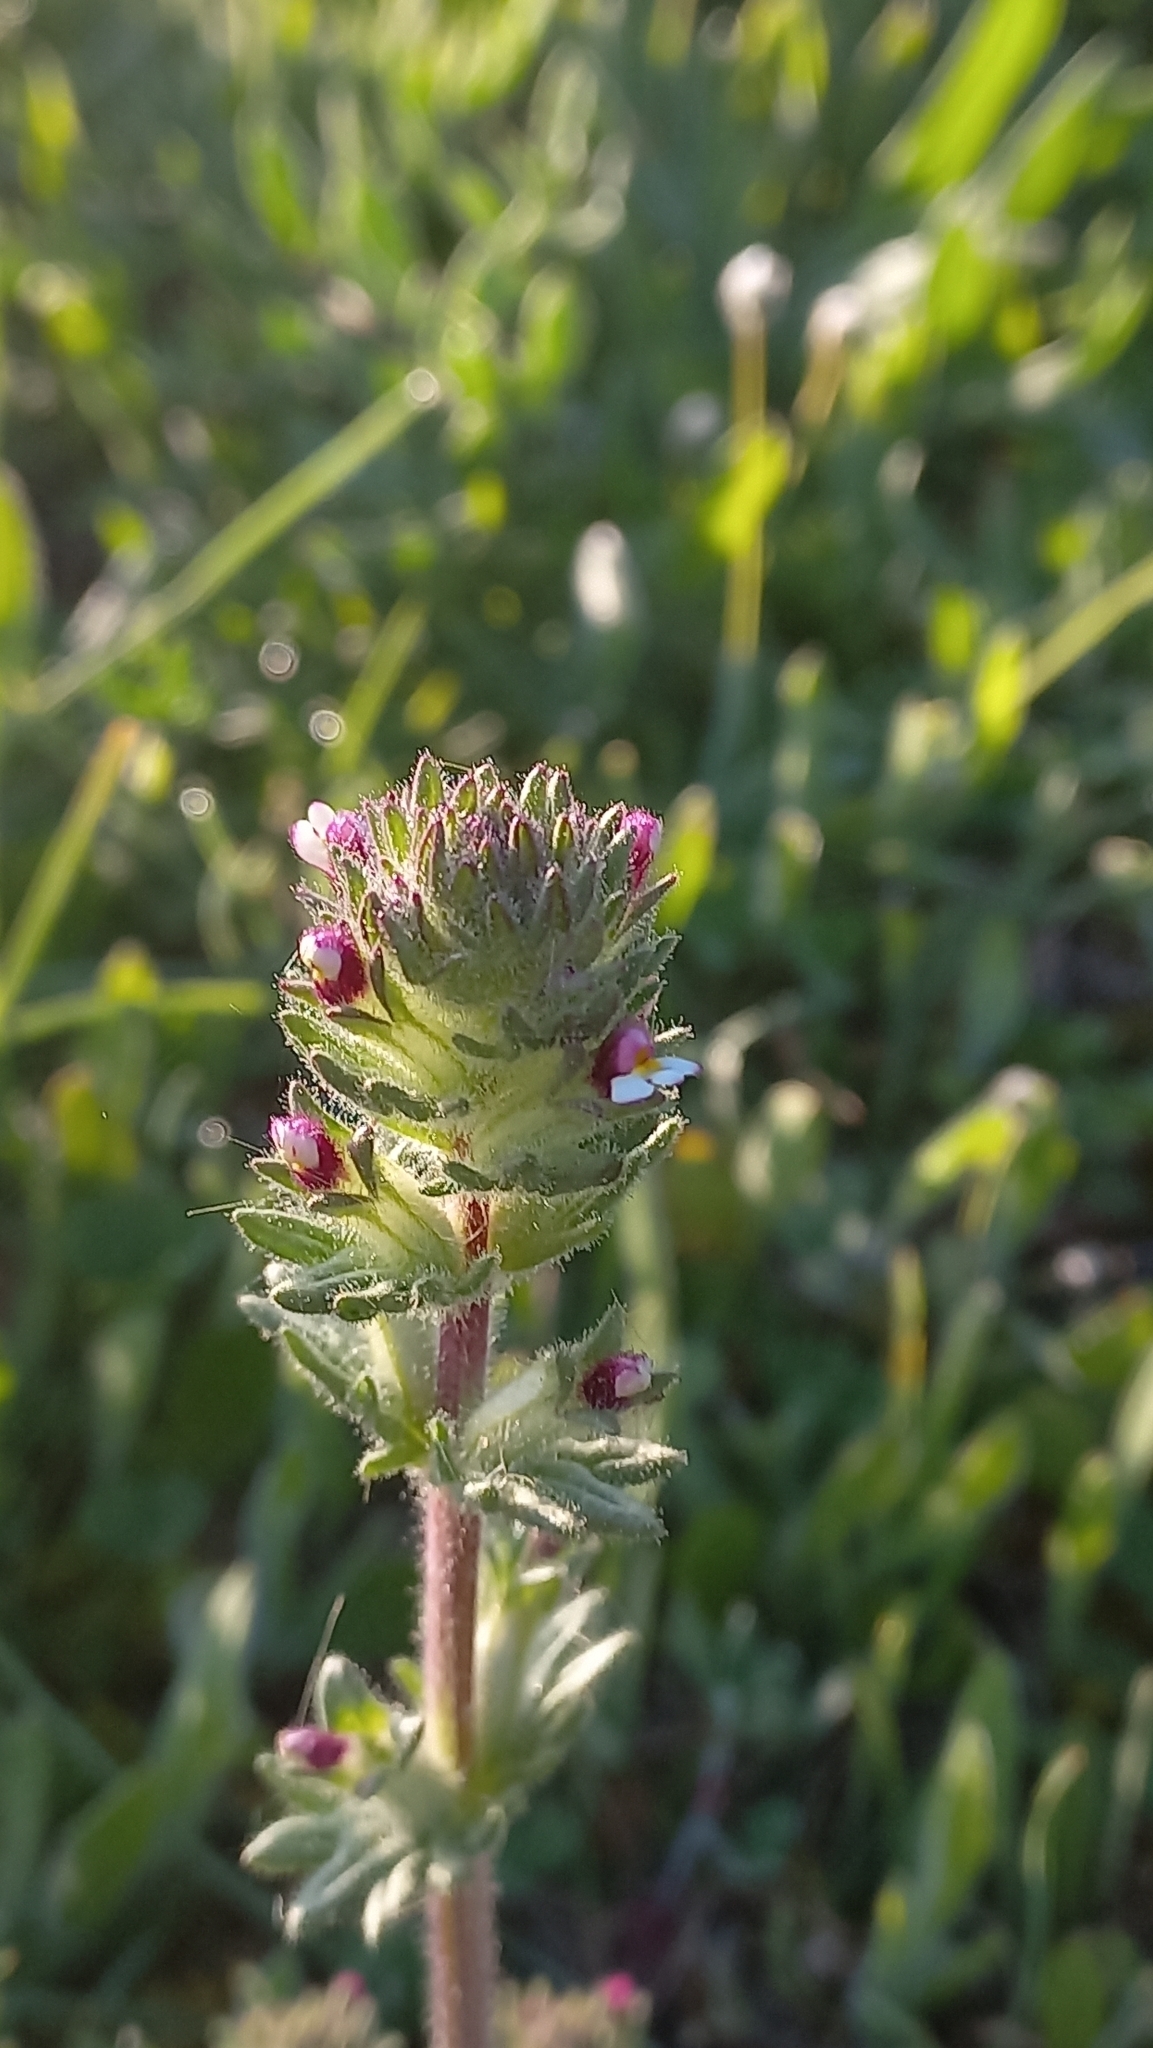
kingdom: Plantae
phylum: Tracheophyta
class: Magnoliopsida
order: Lamiales
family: Orobanchaceae
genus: Parentucellia
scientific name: Parentucellia latifolia
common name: Broadleaf glandweed
